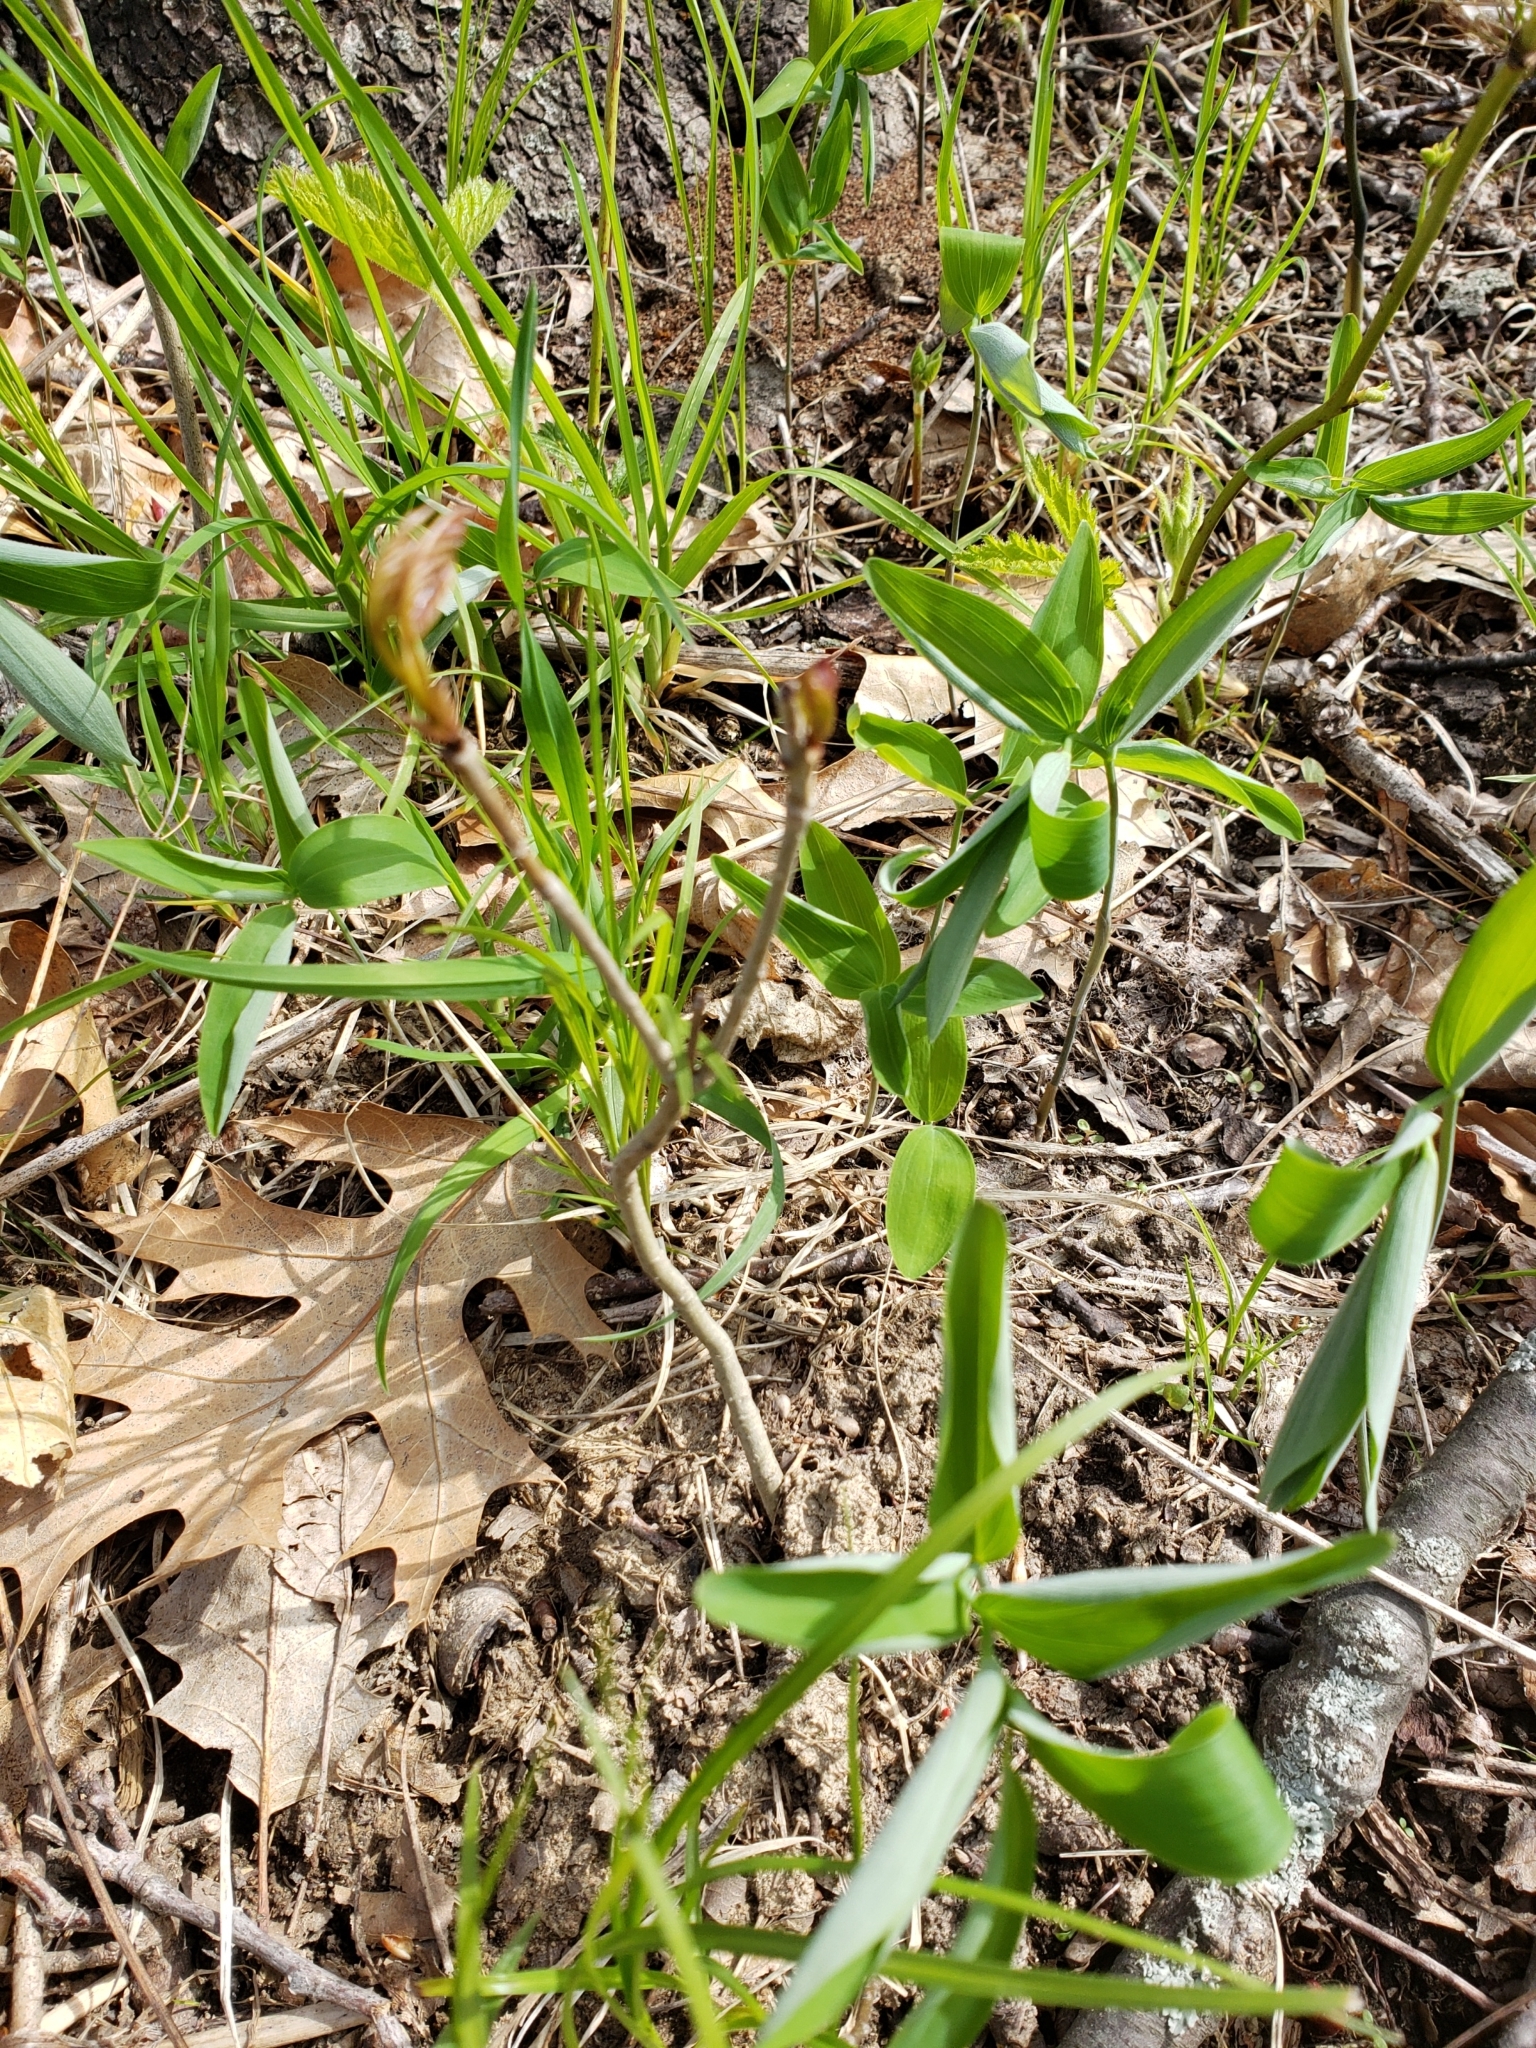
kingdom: Plantae
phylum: Tracheophyta
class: Liliopsida
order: Asparagales
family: Asparagaceae
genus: Polygonatum
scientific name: Polygonatum pubescens
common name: Downy solomon's seal
